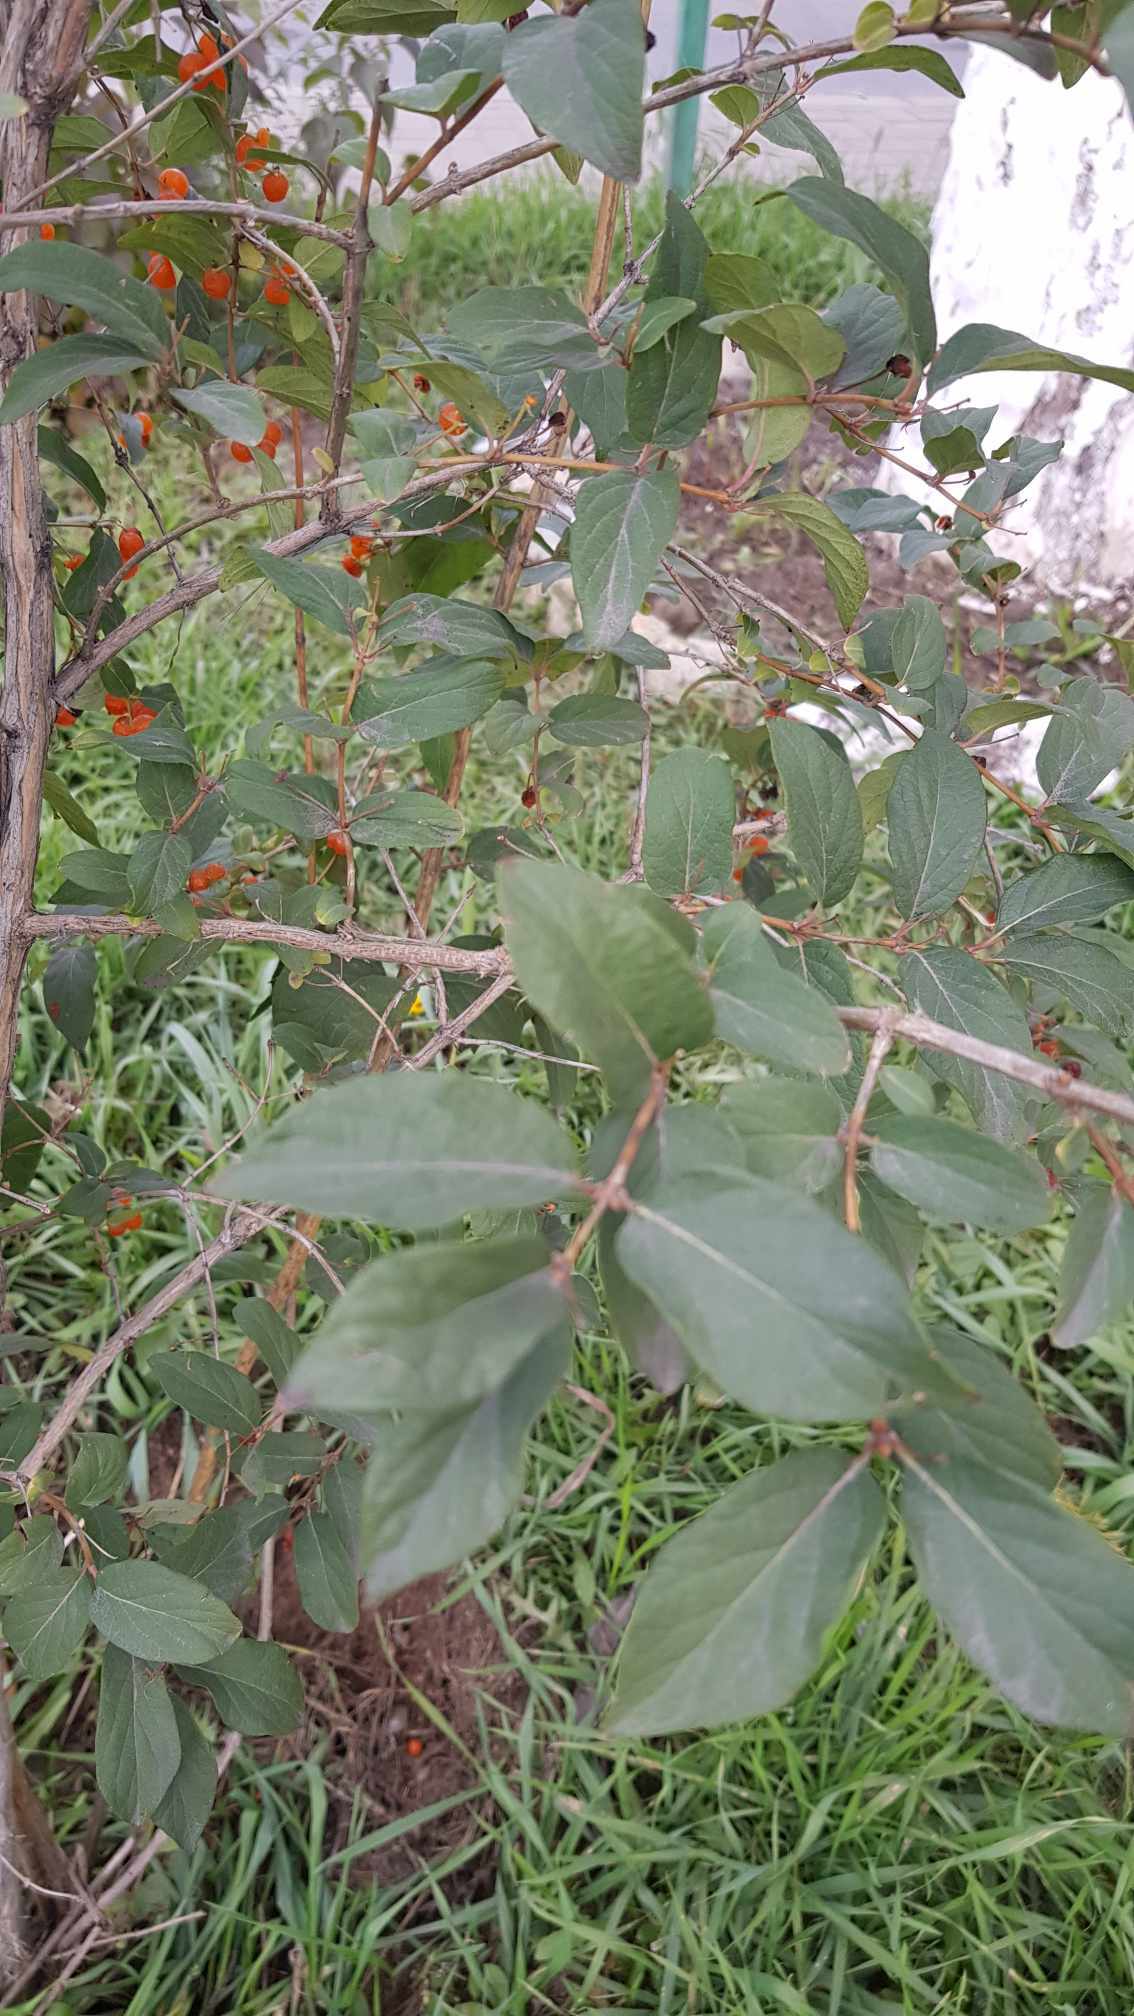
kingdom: Plantae
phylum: Tracheophyta
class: Magnoliopsida
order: Rosales
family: Rosaceae
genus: Cotoneaster
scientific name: Cotoneaster melanocarpus
